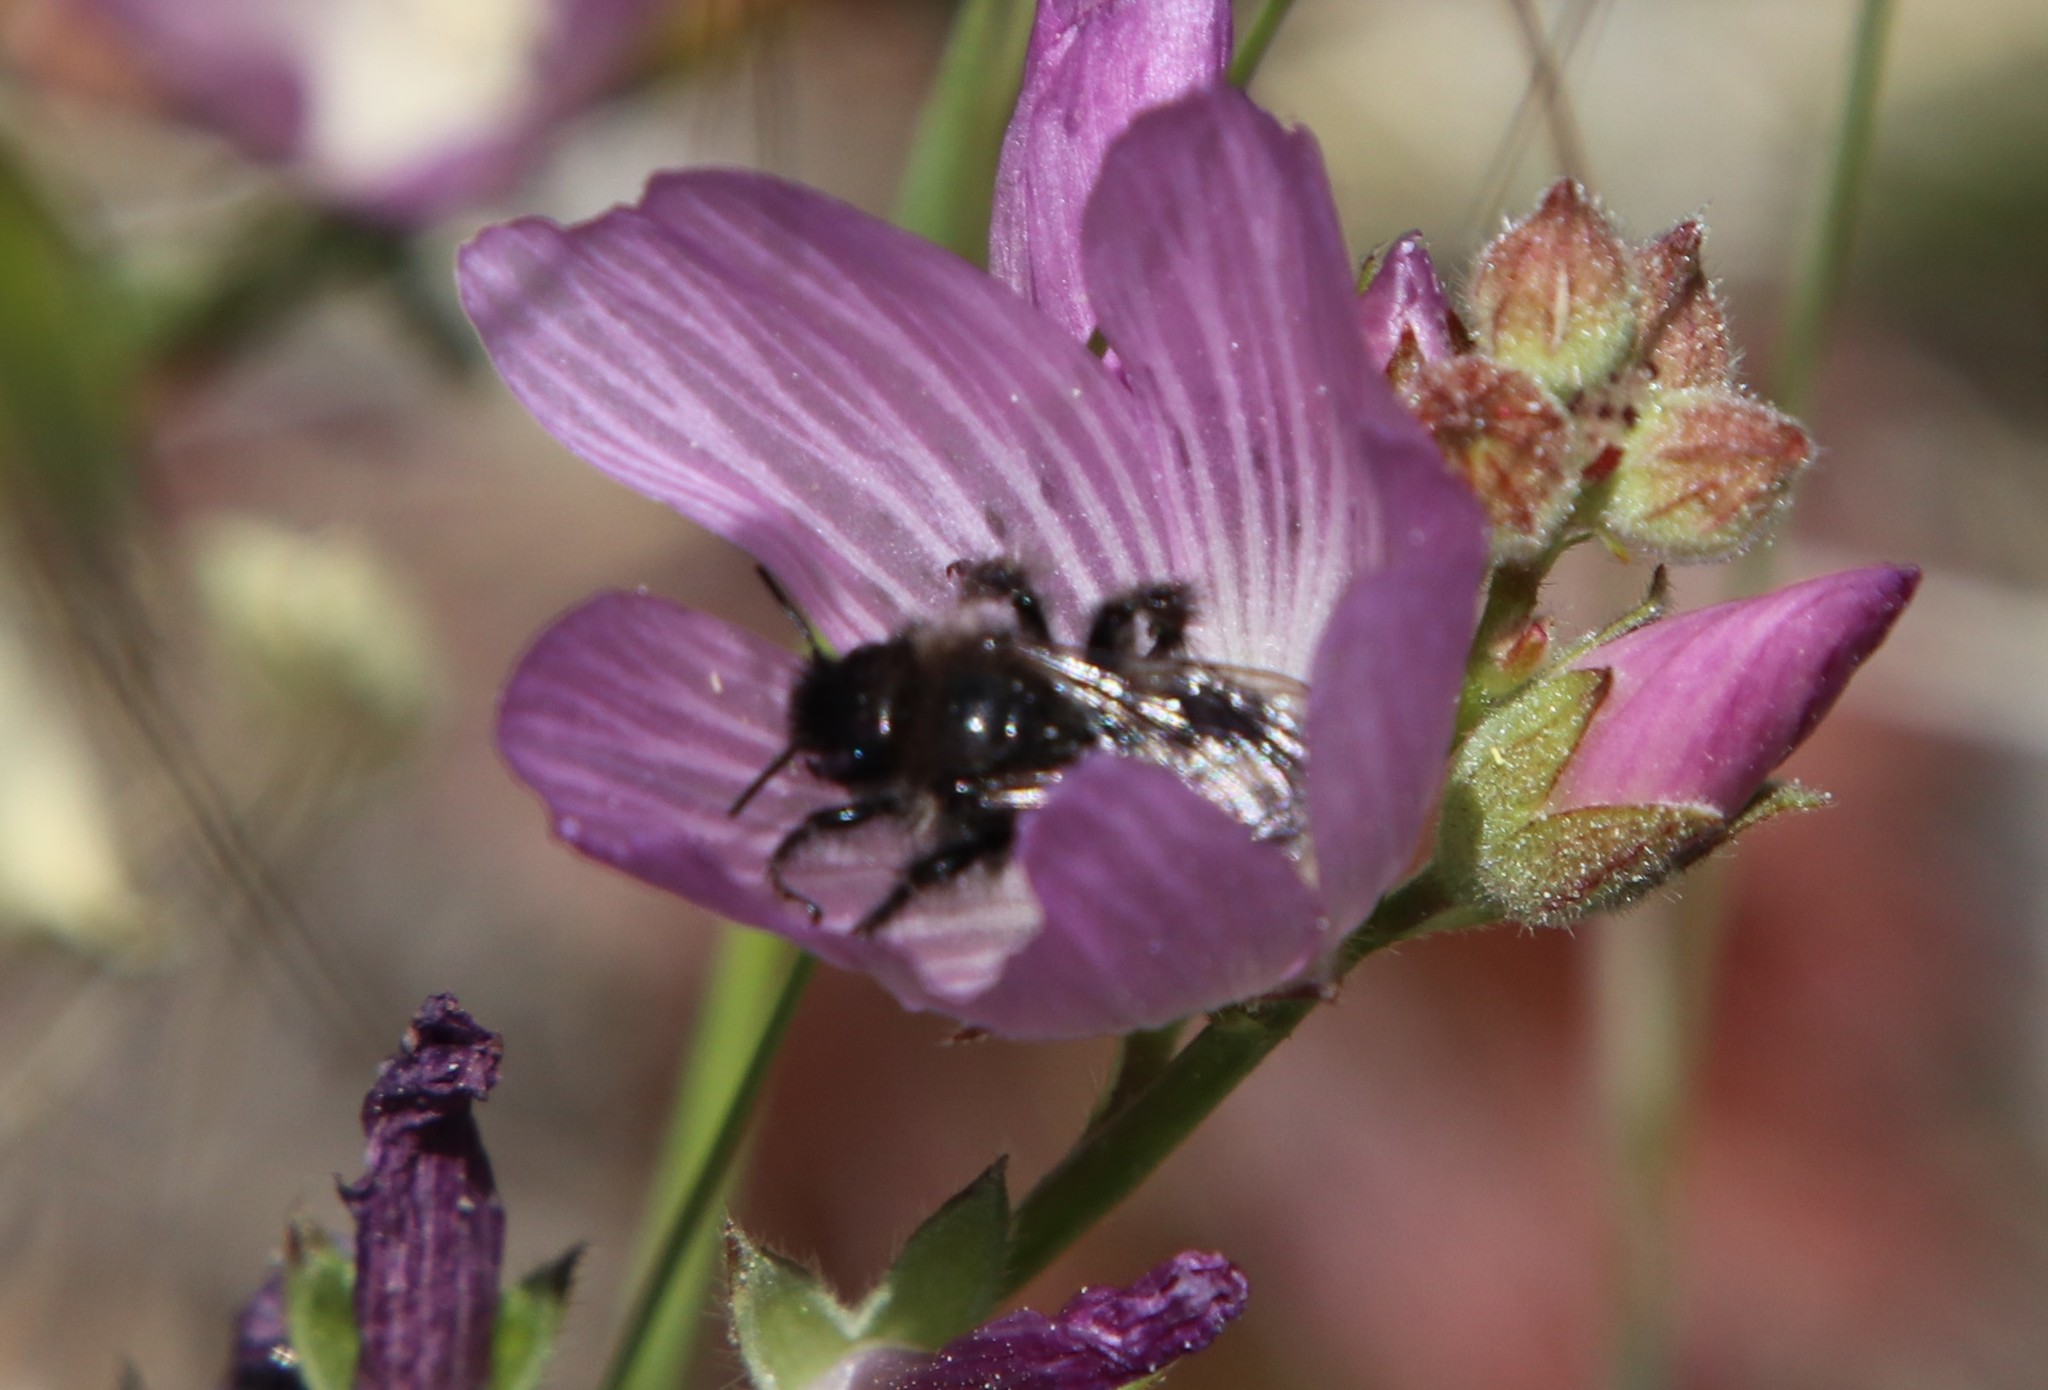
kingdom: Animalia
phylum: Arthropoda
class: Insecta
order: Hymenoptera
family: Apidae
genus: Diadasia
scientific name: Diadasia nigrifrons
